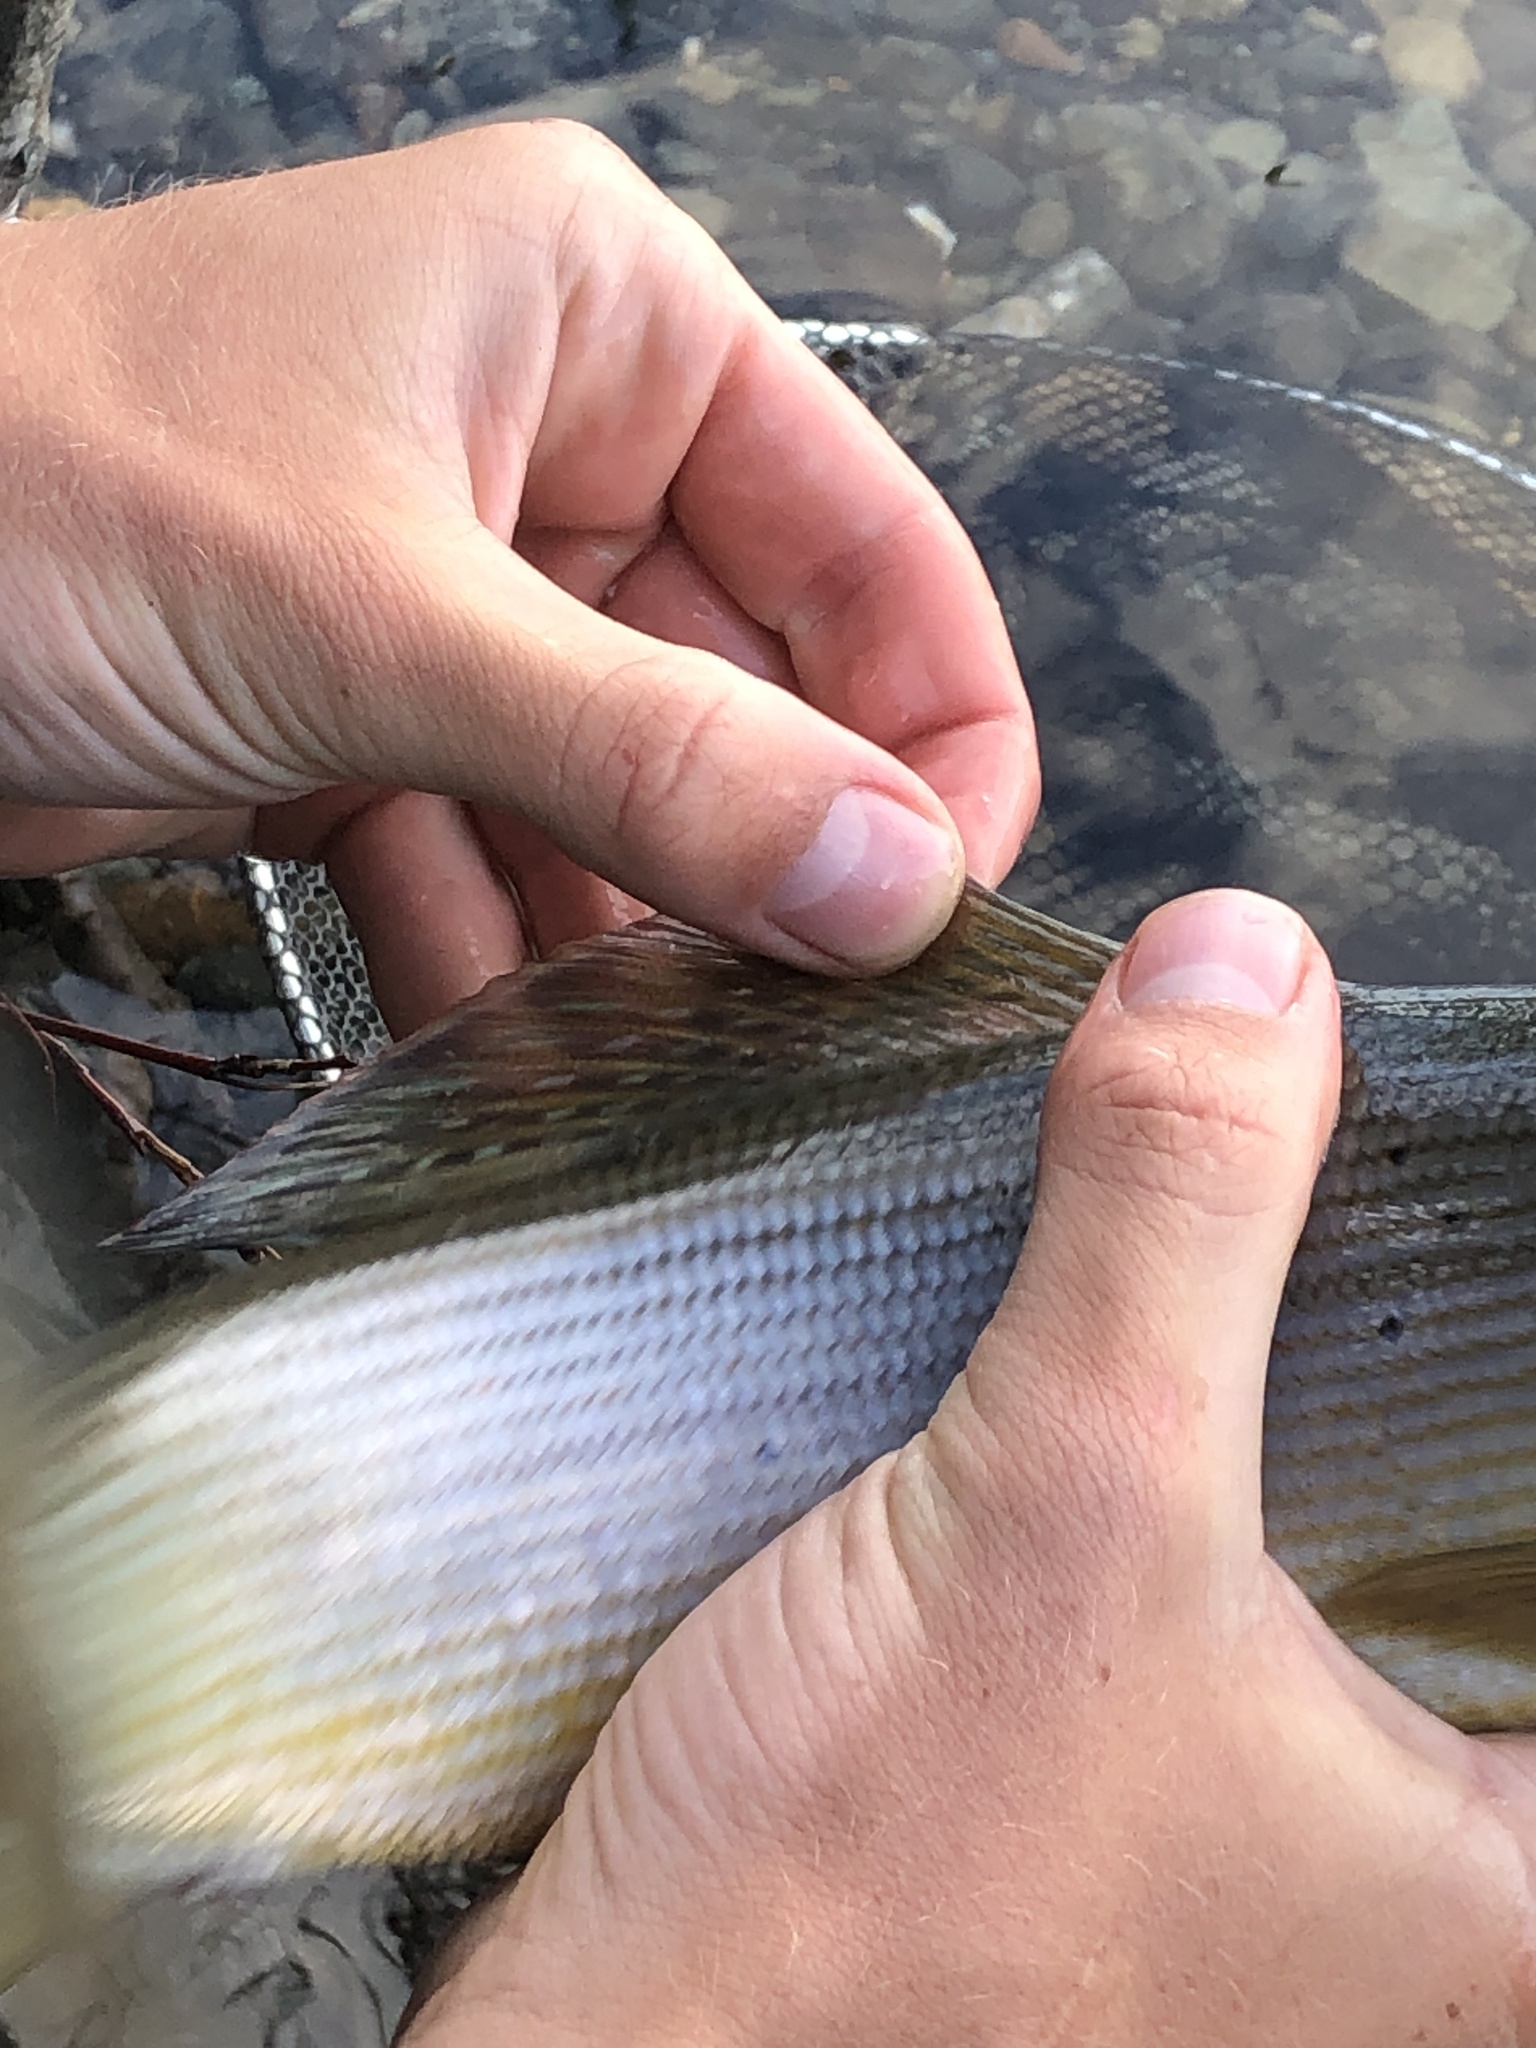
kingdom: Animalia
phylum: Chordata
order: Salmoniformes
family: Salmonidae
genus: Thymallus
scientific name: Thymallus arcticus
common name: Arctic grayling
